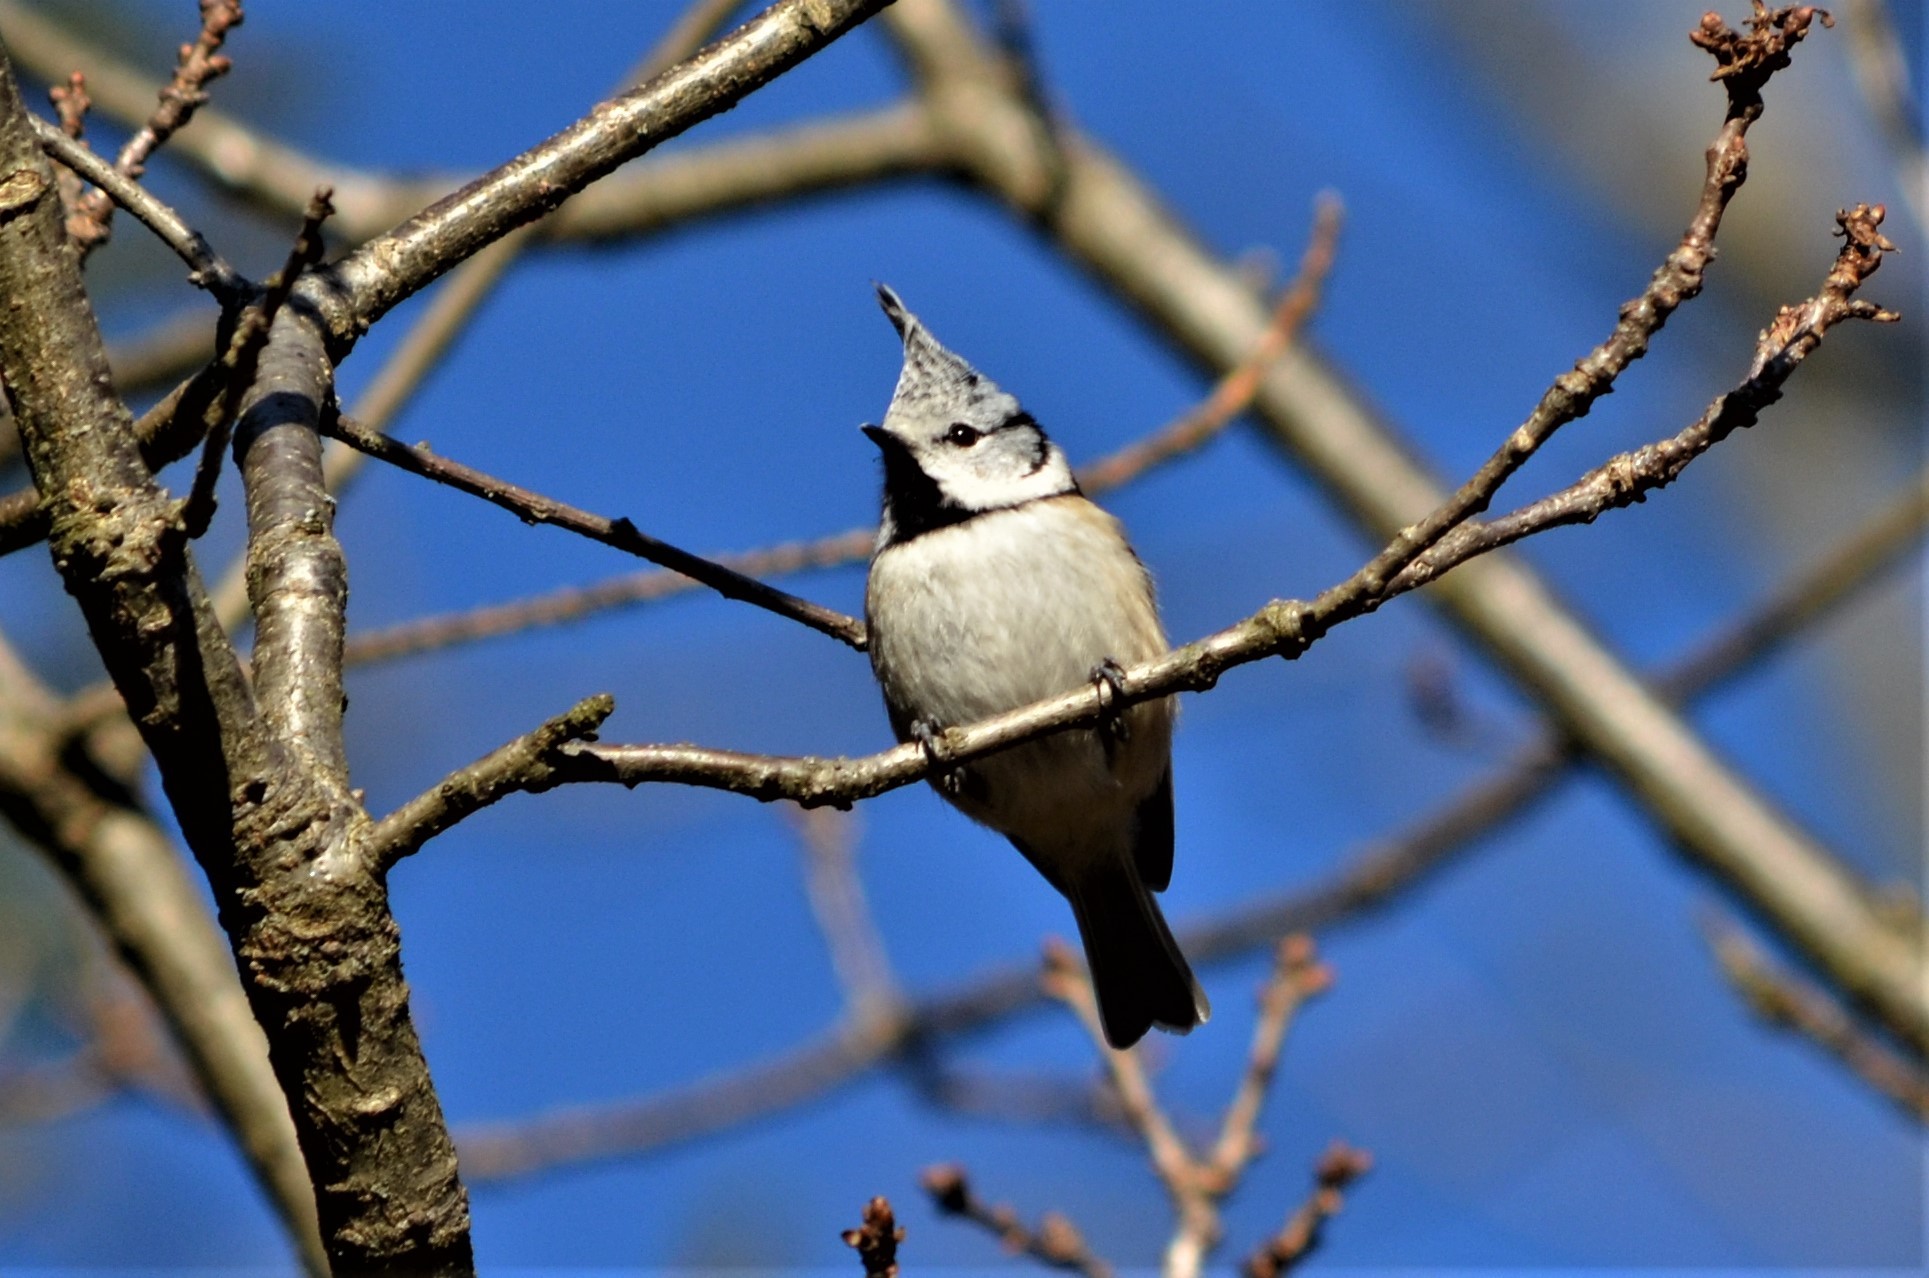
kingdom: Animalia
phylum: Chordata
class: Aves
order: Passeriformes
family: Paridae
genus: Lophophanes
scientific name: Lophophanes cristatus
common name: European crested tit
